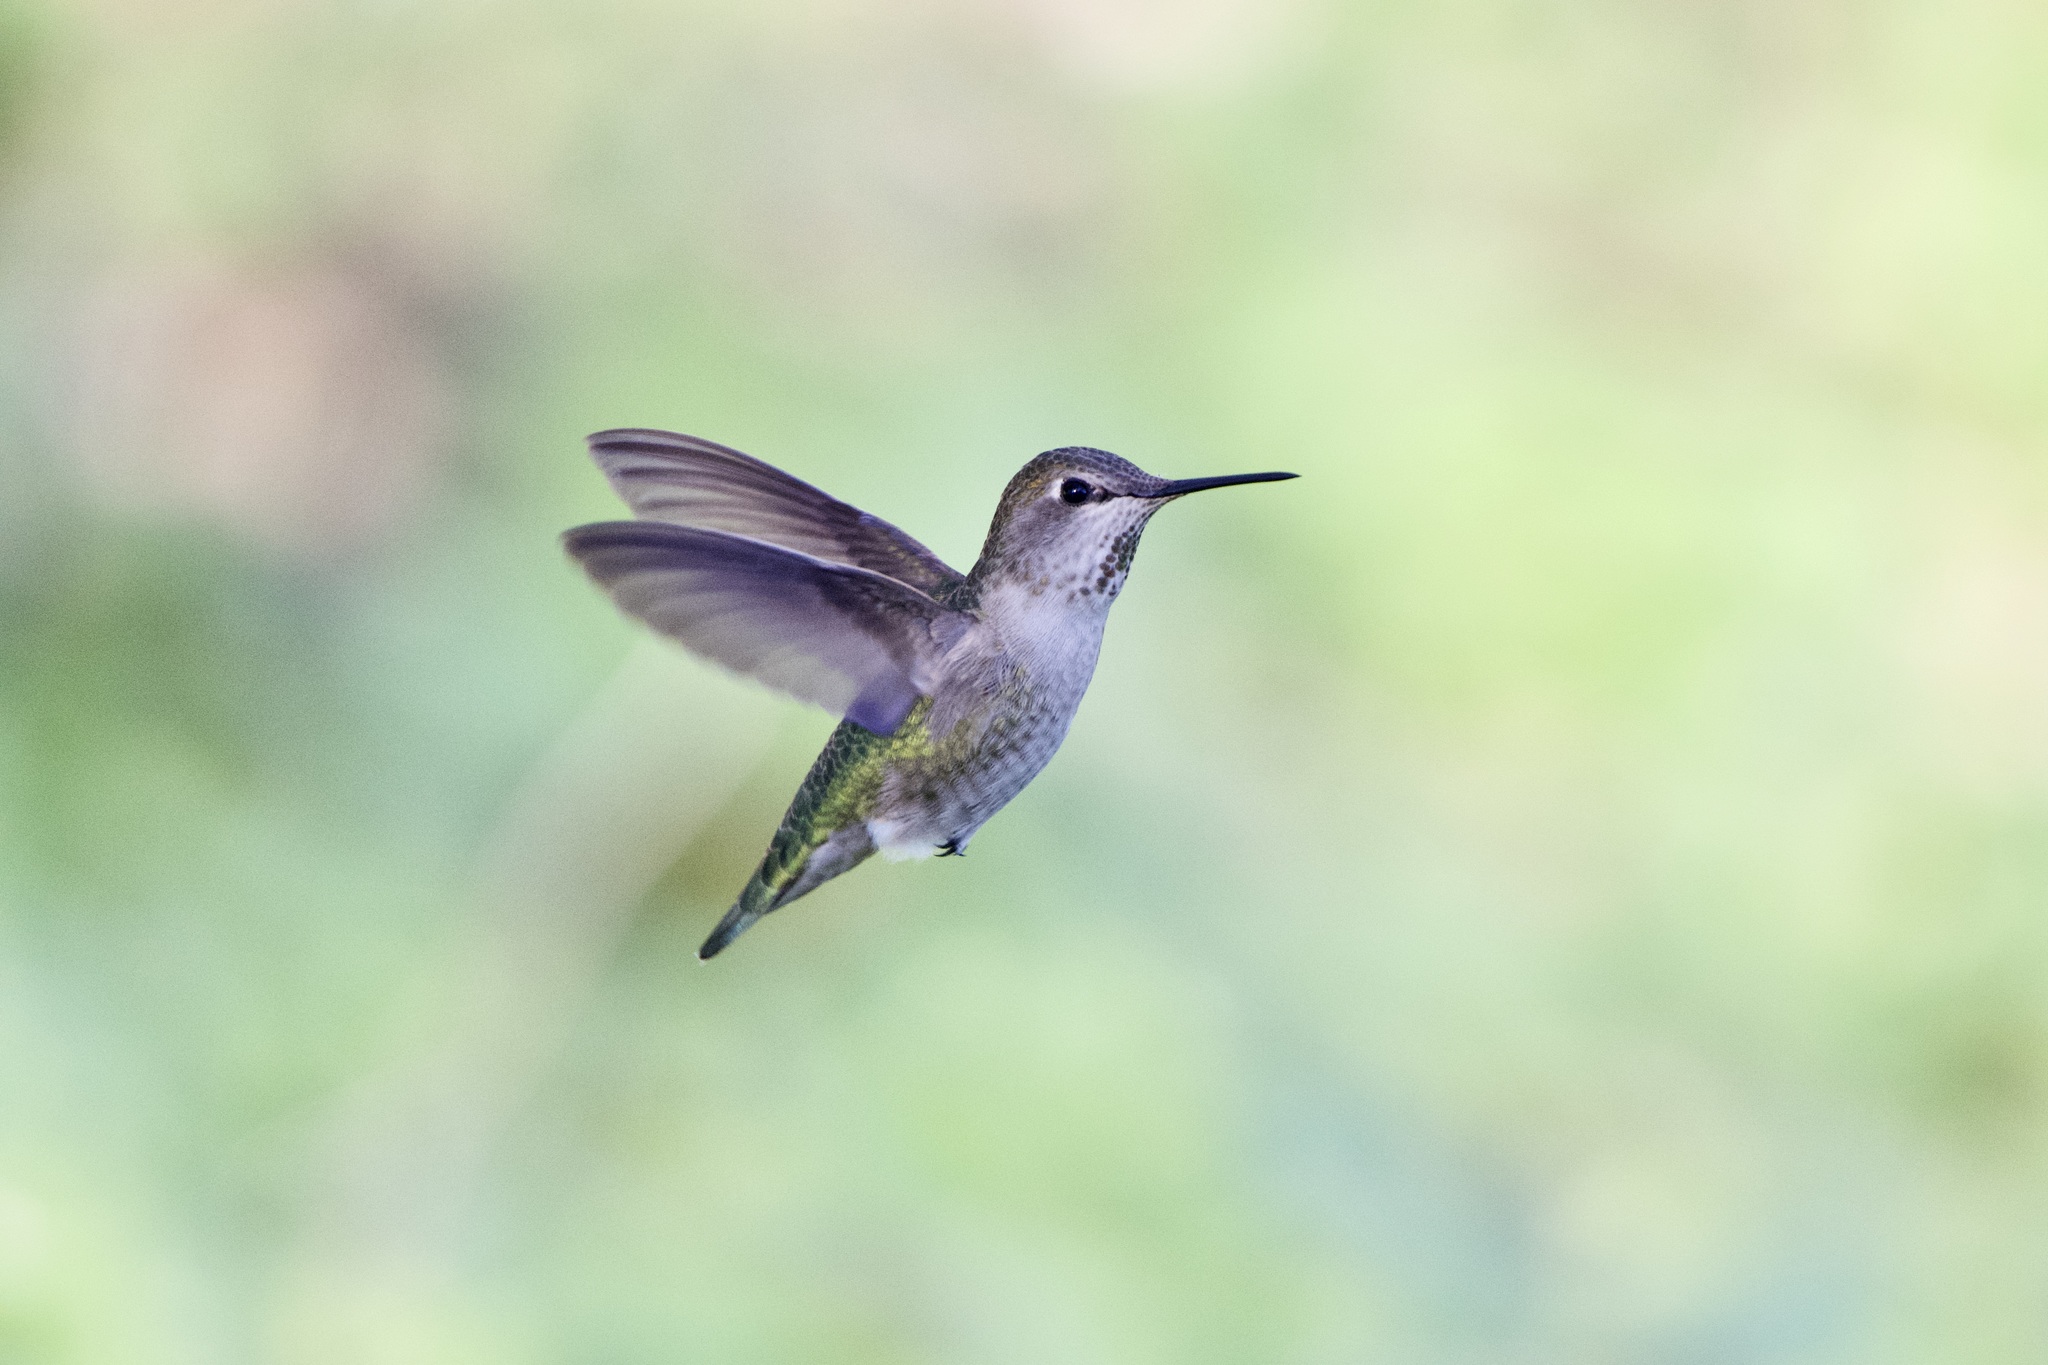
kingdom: Animalia
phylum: Chordata
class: Aves
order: Apodiformes
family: Trochilidae
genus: Calypte
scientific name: Calypte anna
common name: Anna's hummingbird
